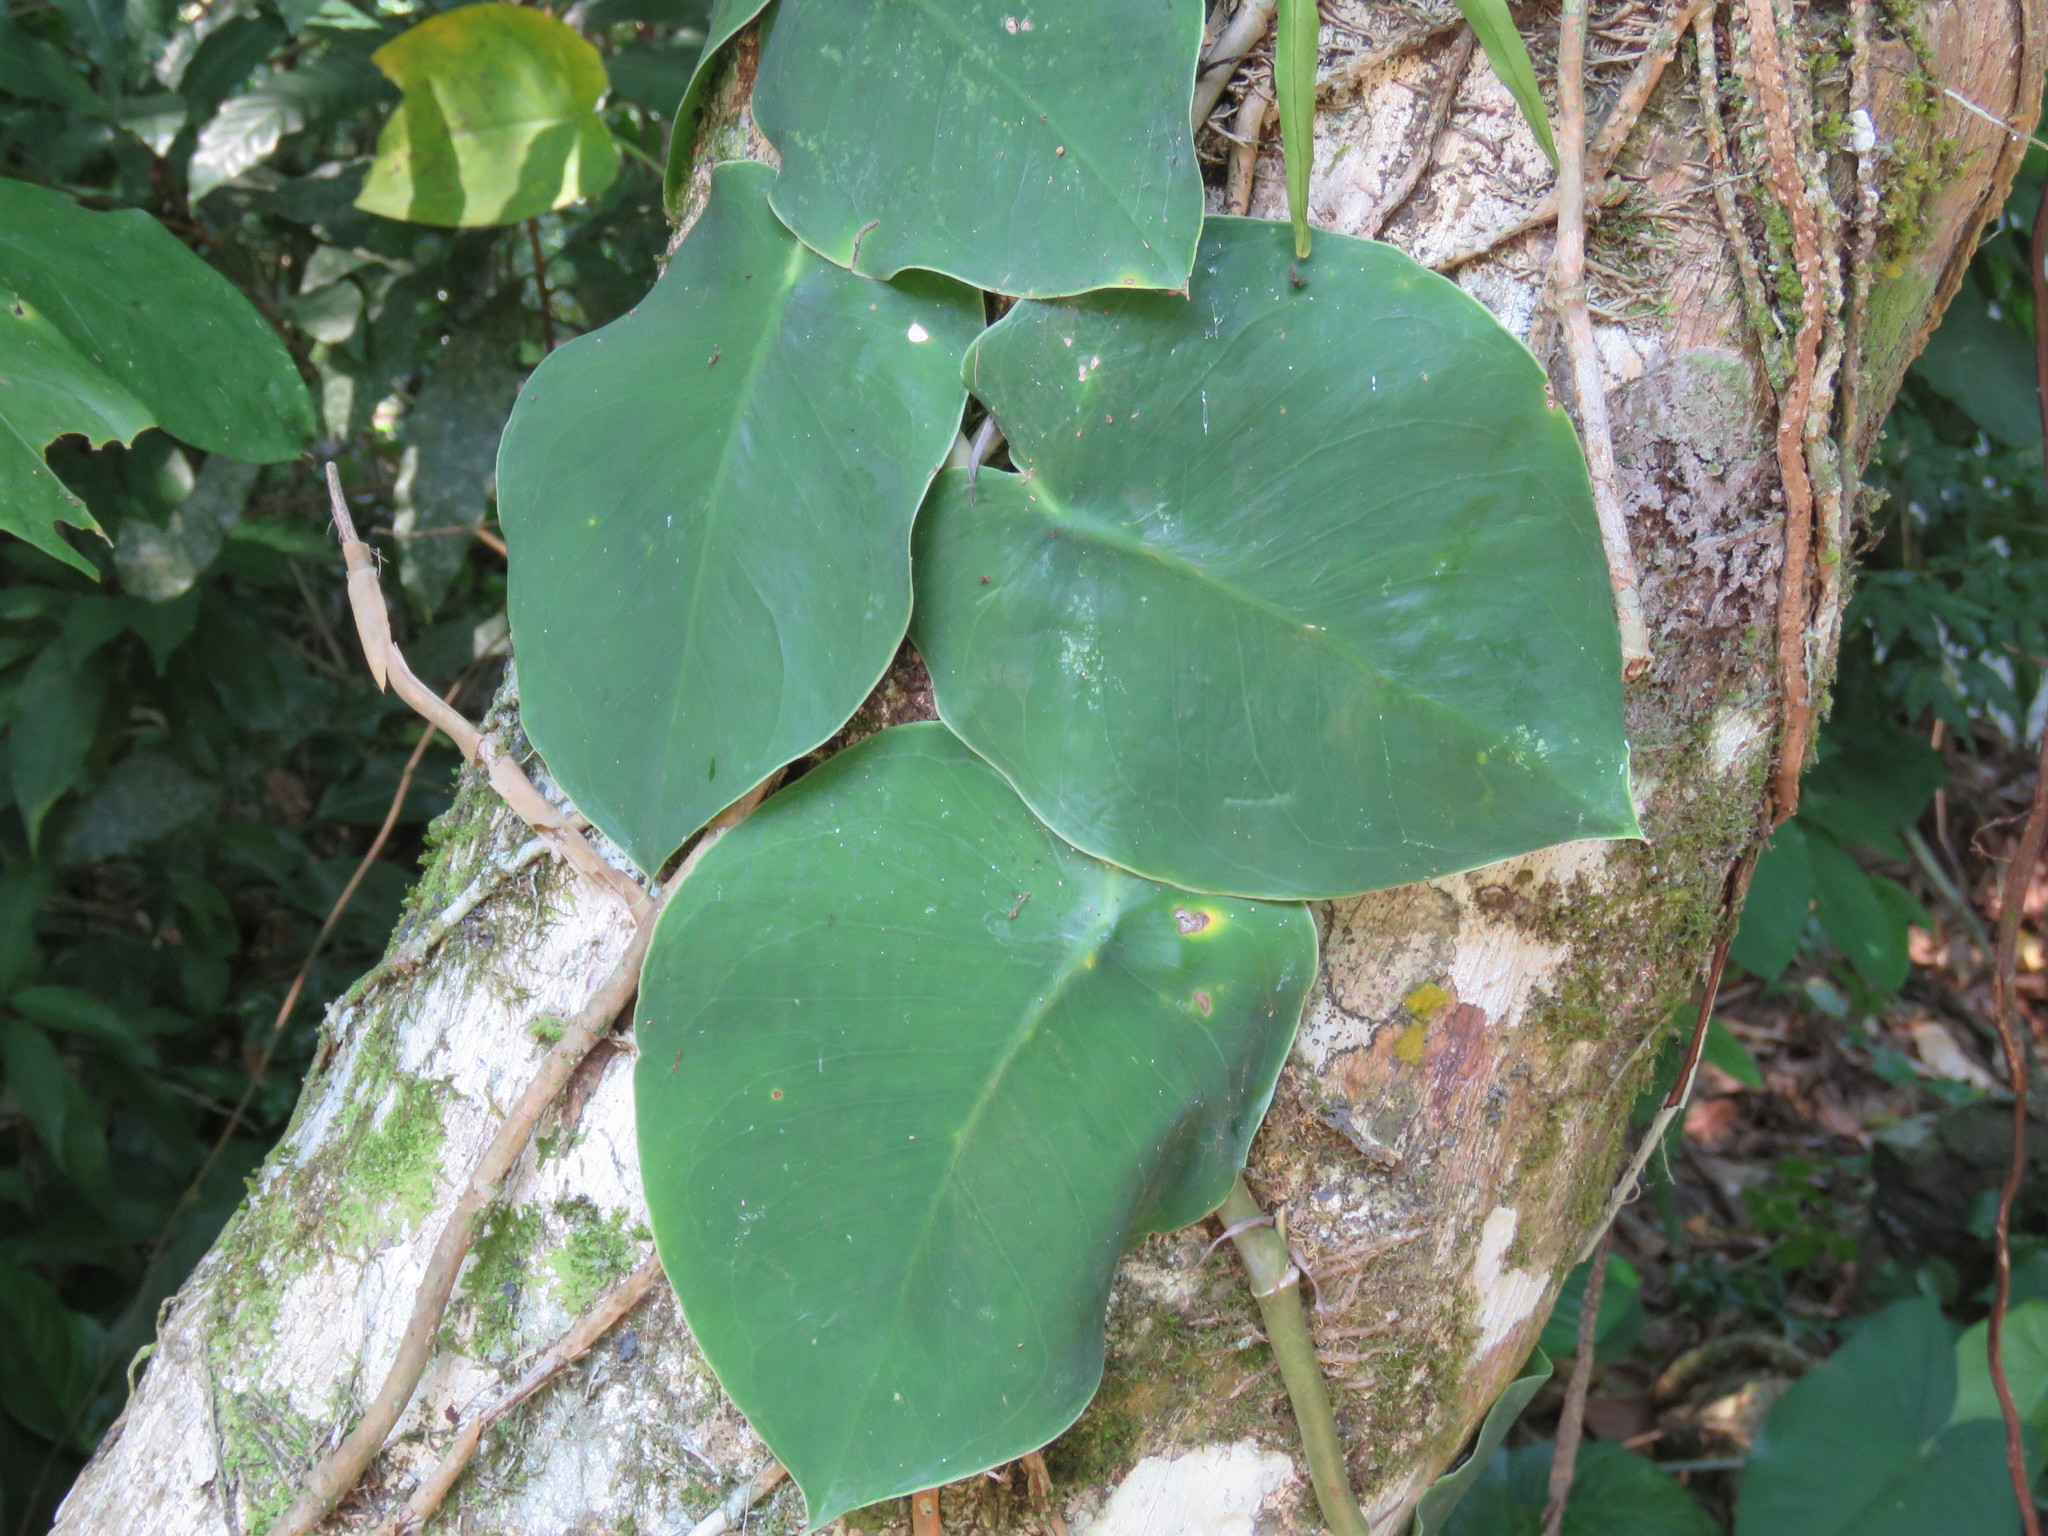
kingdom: Plantae
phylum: Tracheophyta
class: Liliopsida
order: Alismatales
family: Araceae
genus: Monstera
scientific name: Monstera tuberculata
